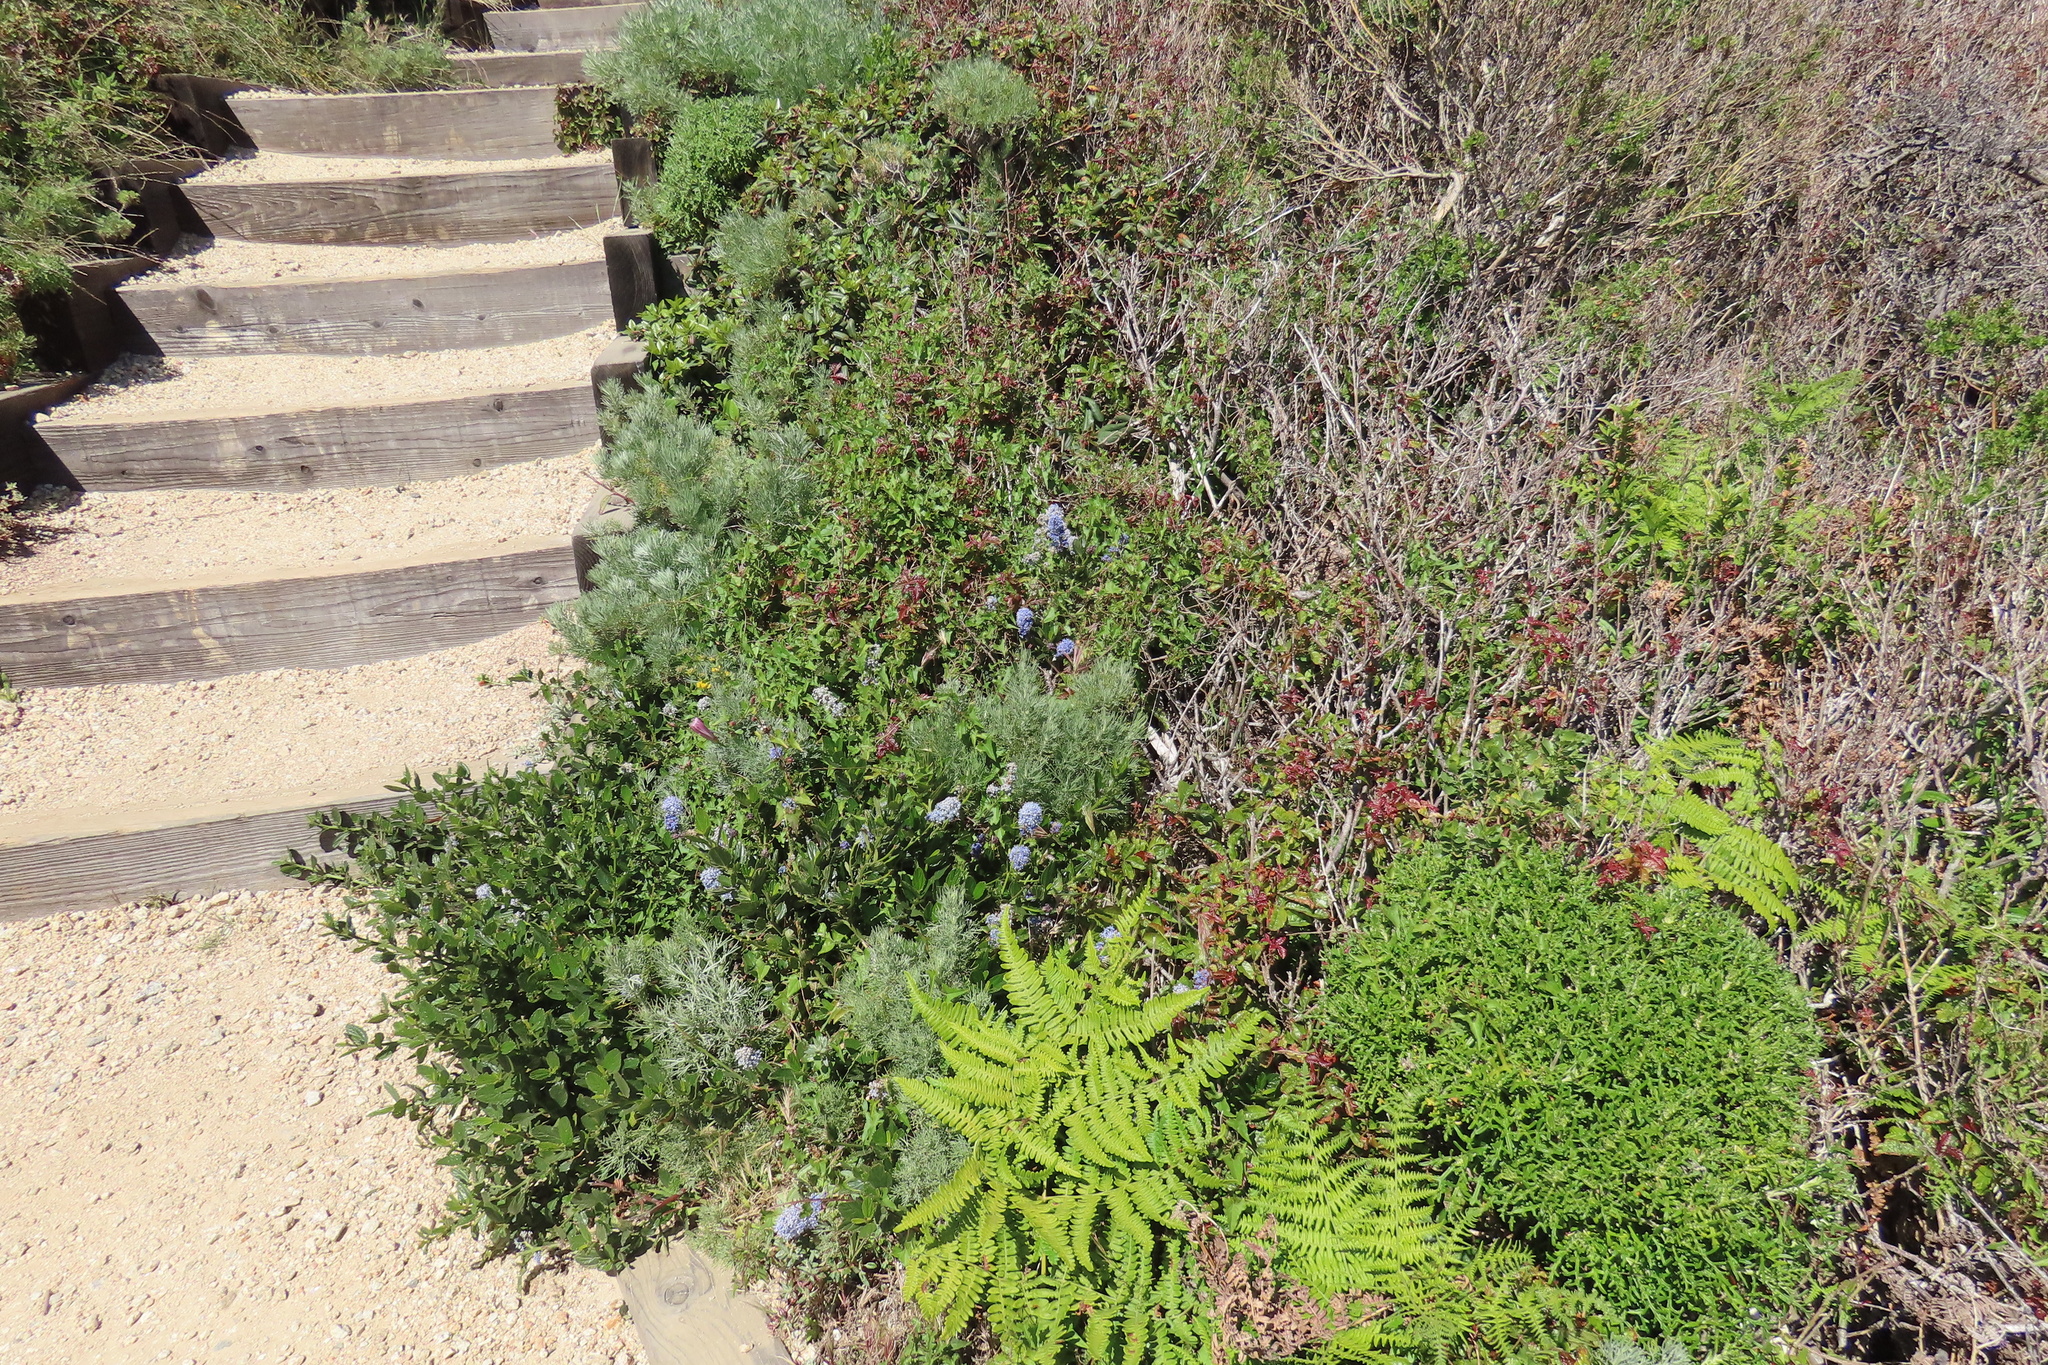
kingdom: Plantae
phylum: Tracheophyta
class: Polypodiopsida
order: Polypodiales
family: Dennstaedtiaceae
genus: Pteridium
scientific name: Pteridium aquilinum
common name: Bracken
